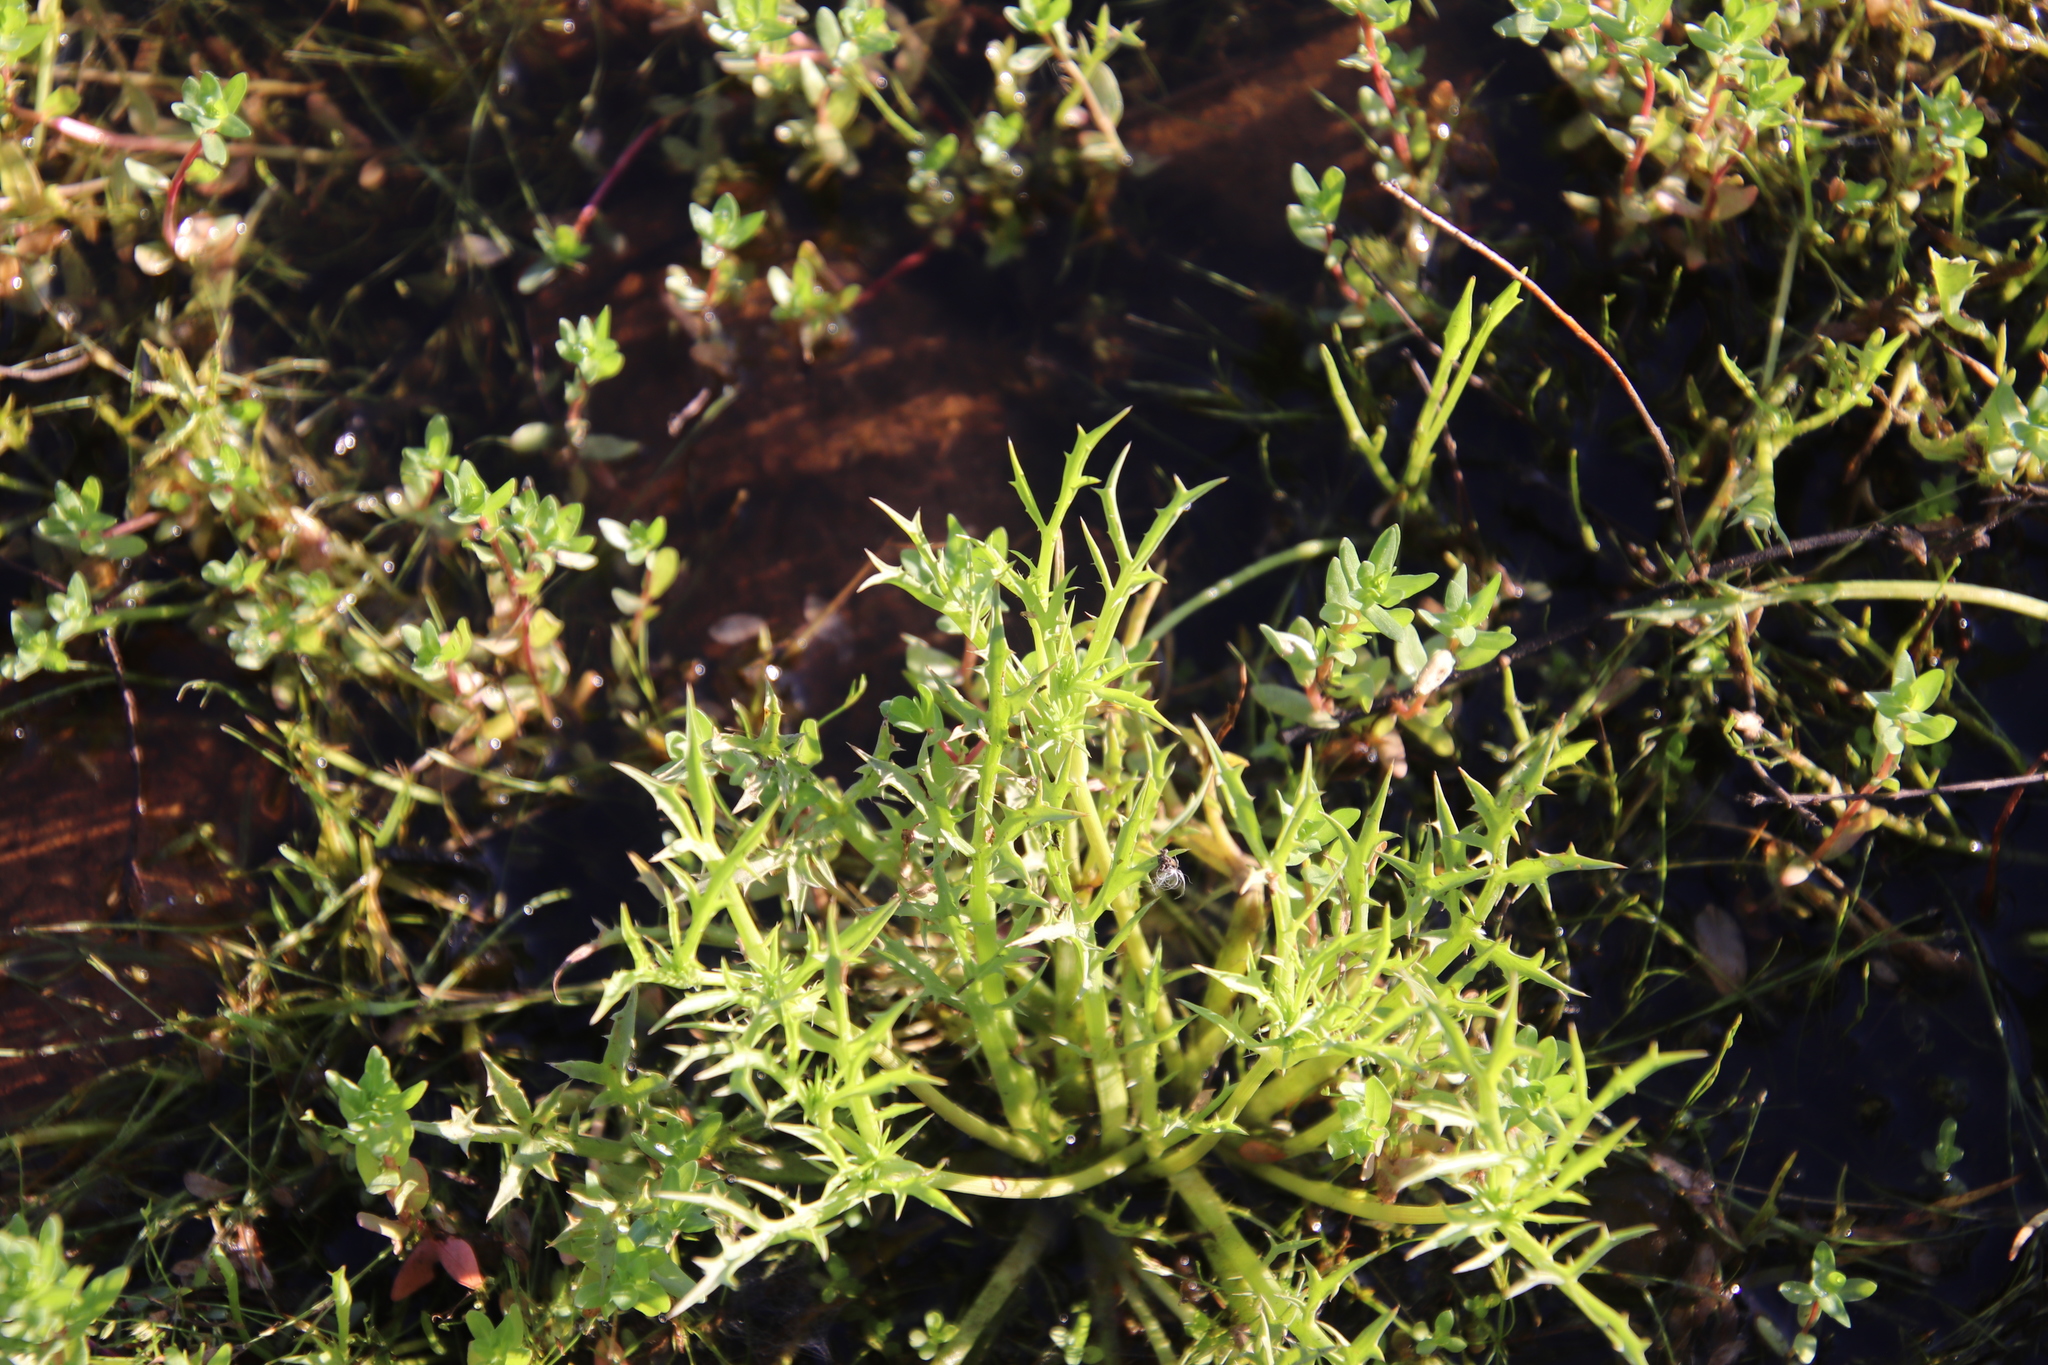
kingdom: Plantae
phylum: Tracheophyta
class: Magnoliopsida
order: Apiales
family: Apiaceae
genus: Eryngium
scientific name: Eryngium aristulatum
